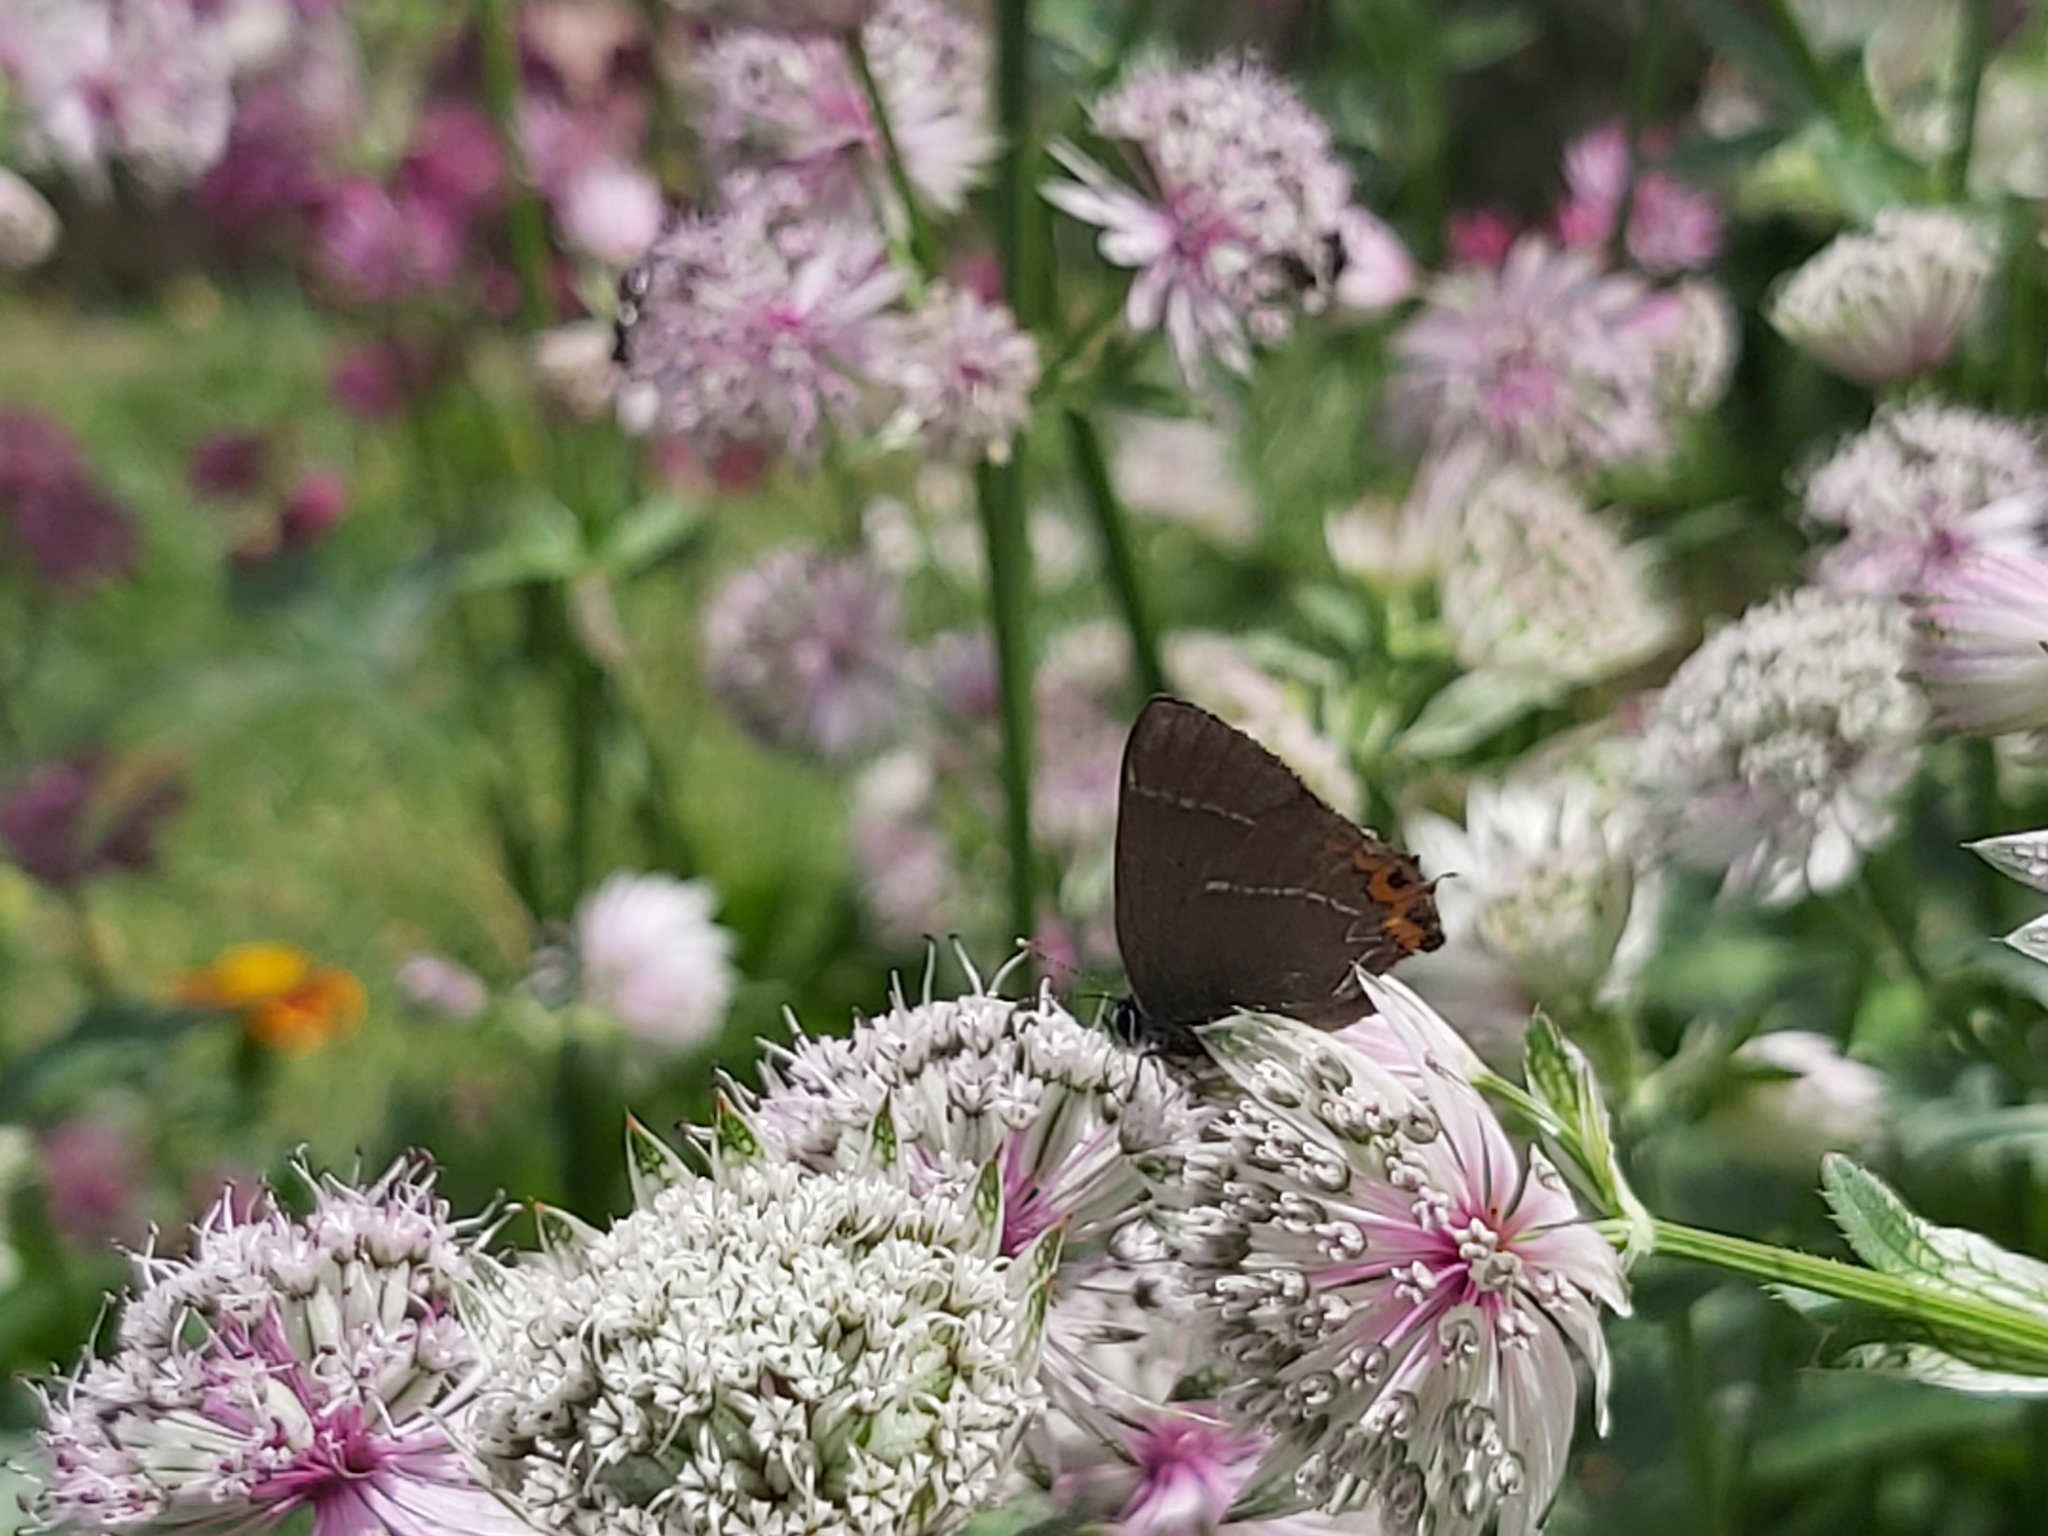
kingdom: Animalia
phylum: Arthropoda
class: Insecta
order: Lepidoptera
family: Lycaenidae
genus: Satyrium
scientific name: Satyrium w-album
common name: White-letter hairstreak
